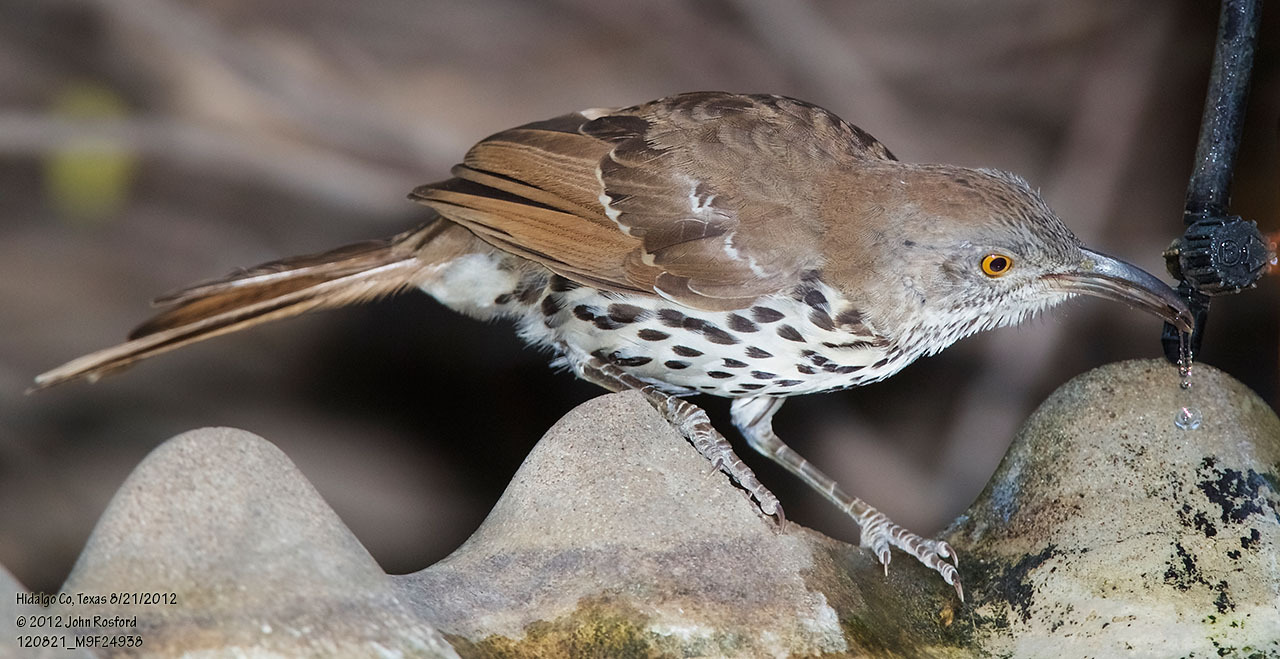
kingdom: Animalia
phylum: Chordata
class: Aves
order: Passeriformes
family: Mimidae
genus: Toxostoma
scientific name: Toxostoma longirostre
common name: Long-billed thrasher
